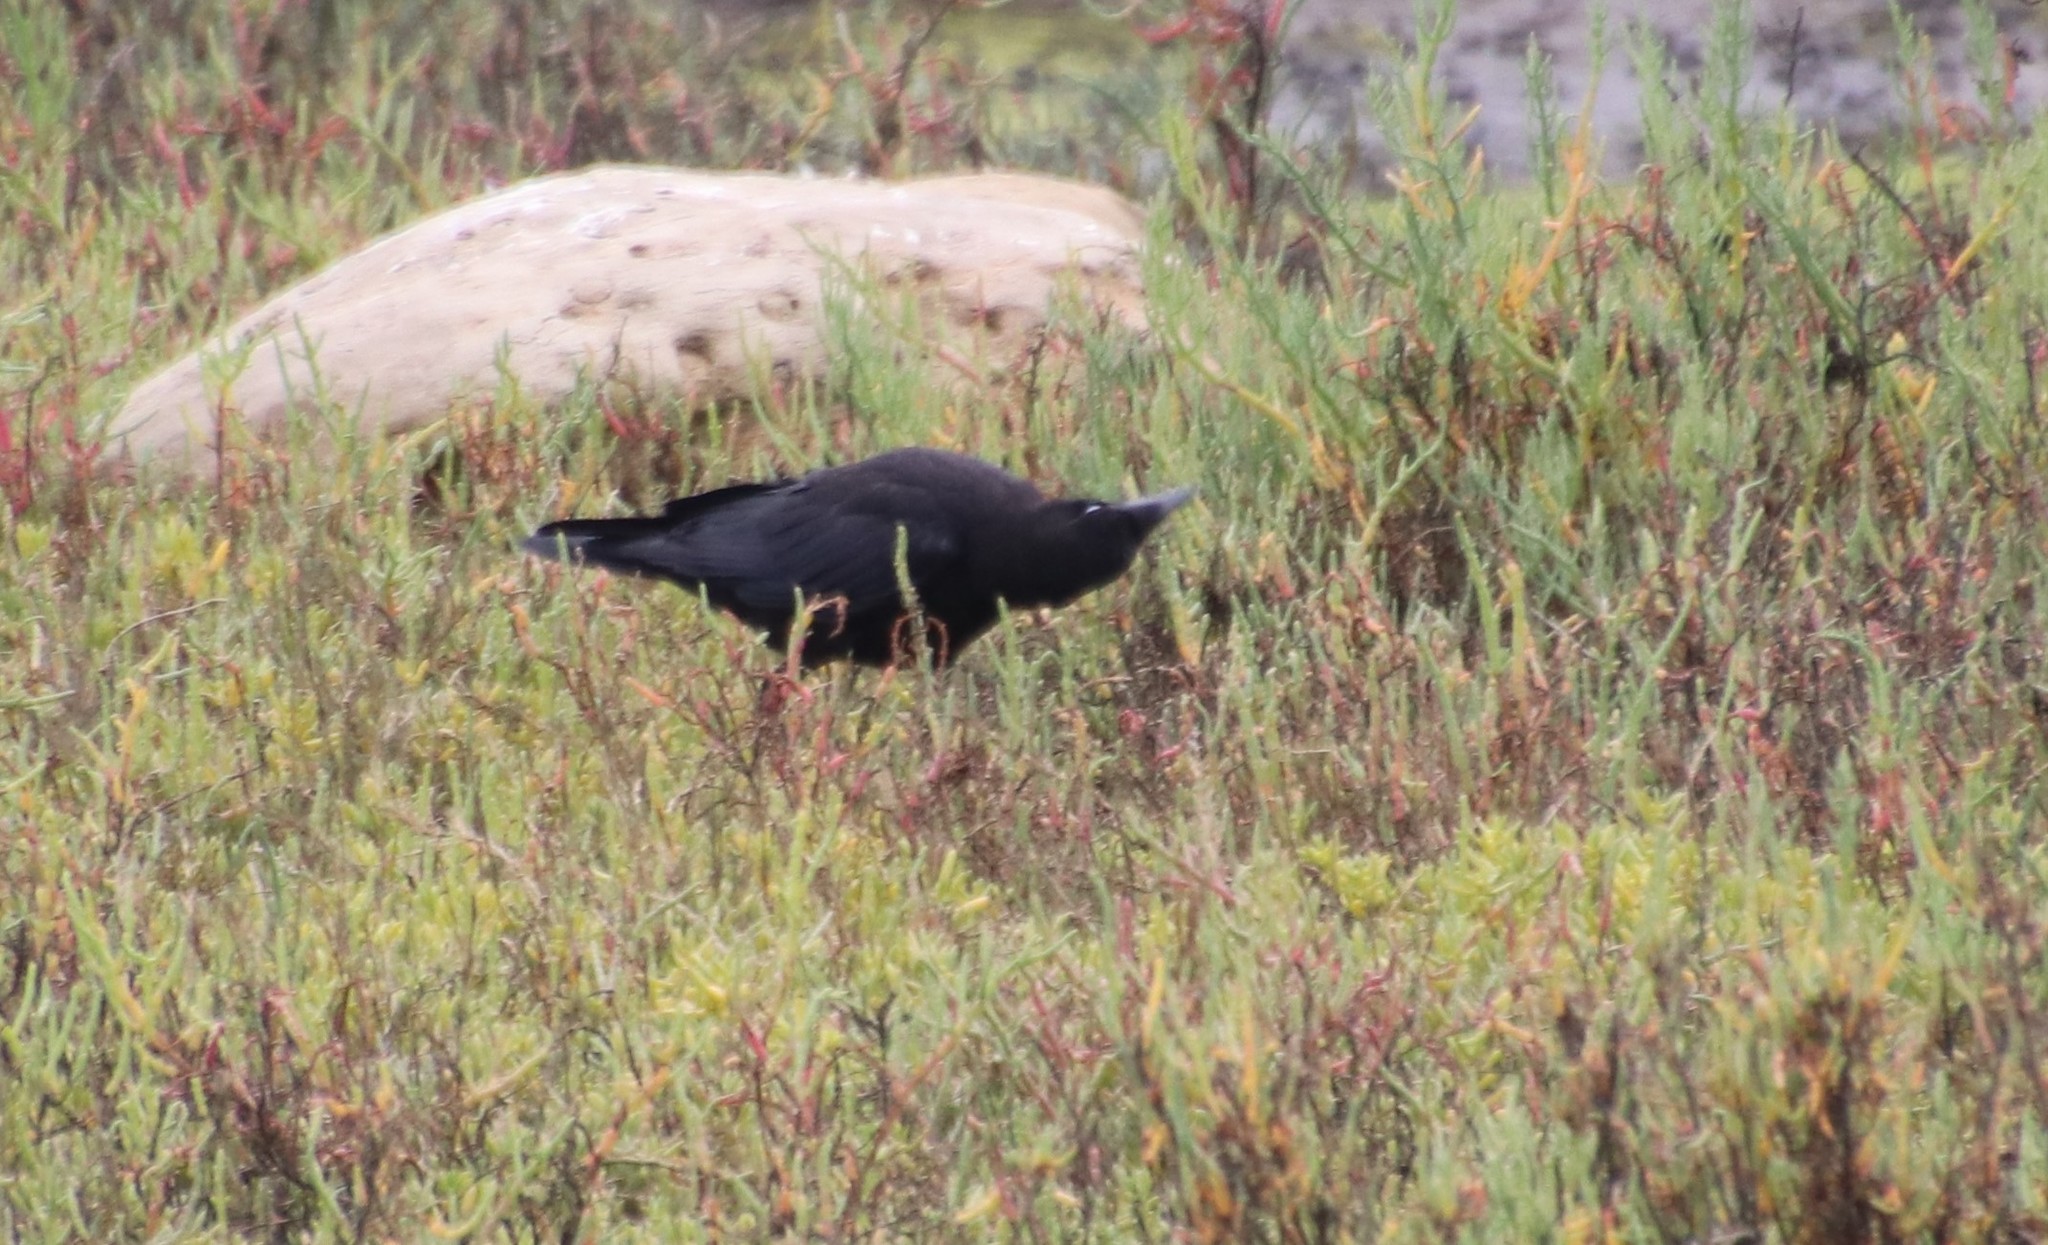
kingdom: Animalia
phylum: Chordata
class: Aves
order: Passeriformes
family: Corvidae
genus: Corvus
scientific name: Corvus brachyrhynchos
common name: American crow
